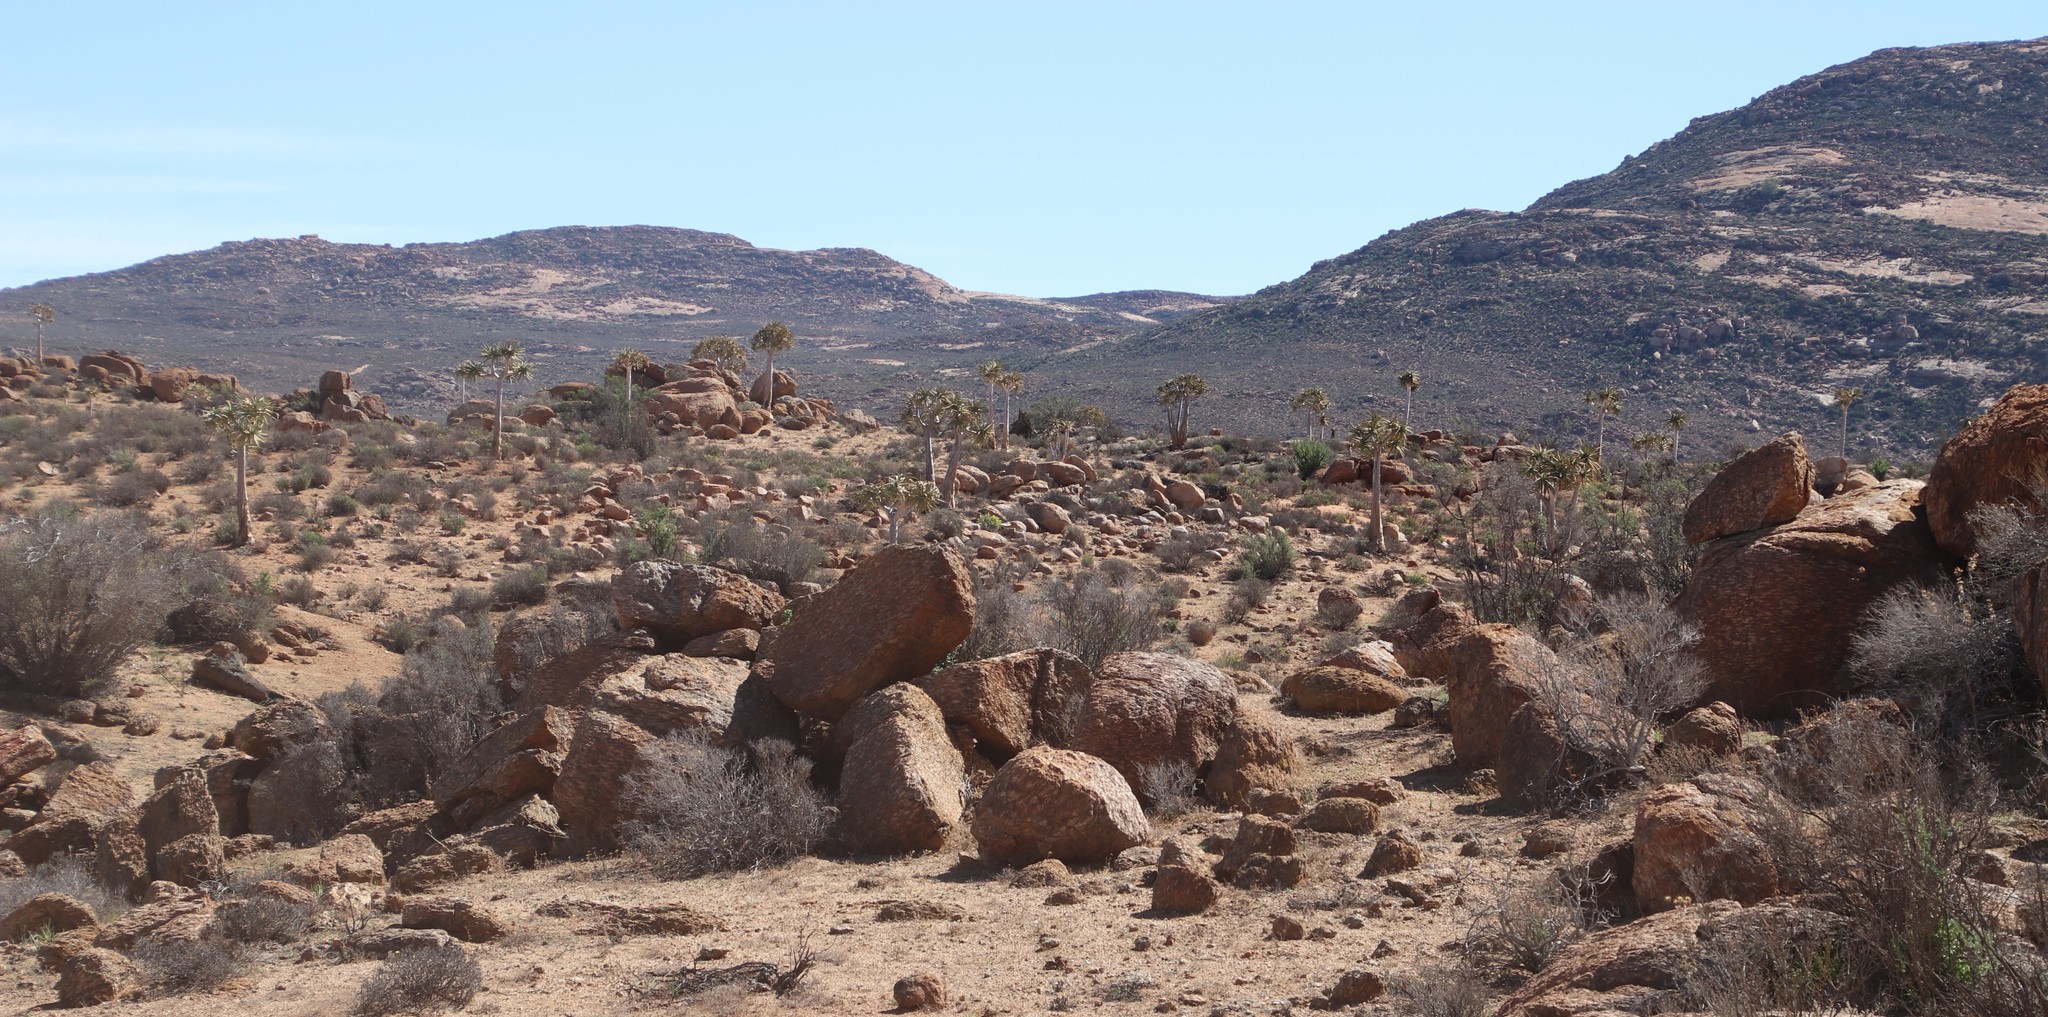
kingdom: Plantae
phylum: Tracheophyta
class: Liliopsida
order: Asparagales
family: Asphodelaceae
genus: Aloidendron
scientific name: Aloidendron dichotomum
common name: Quiver tree
